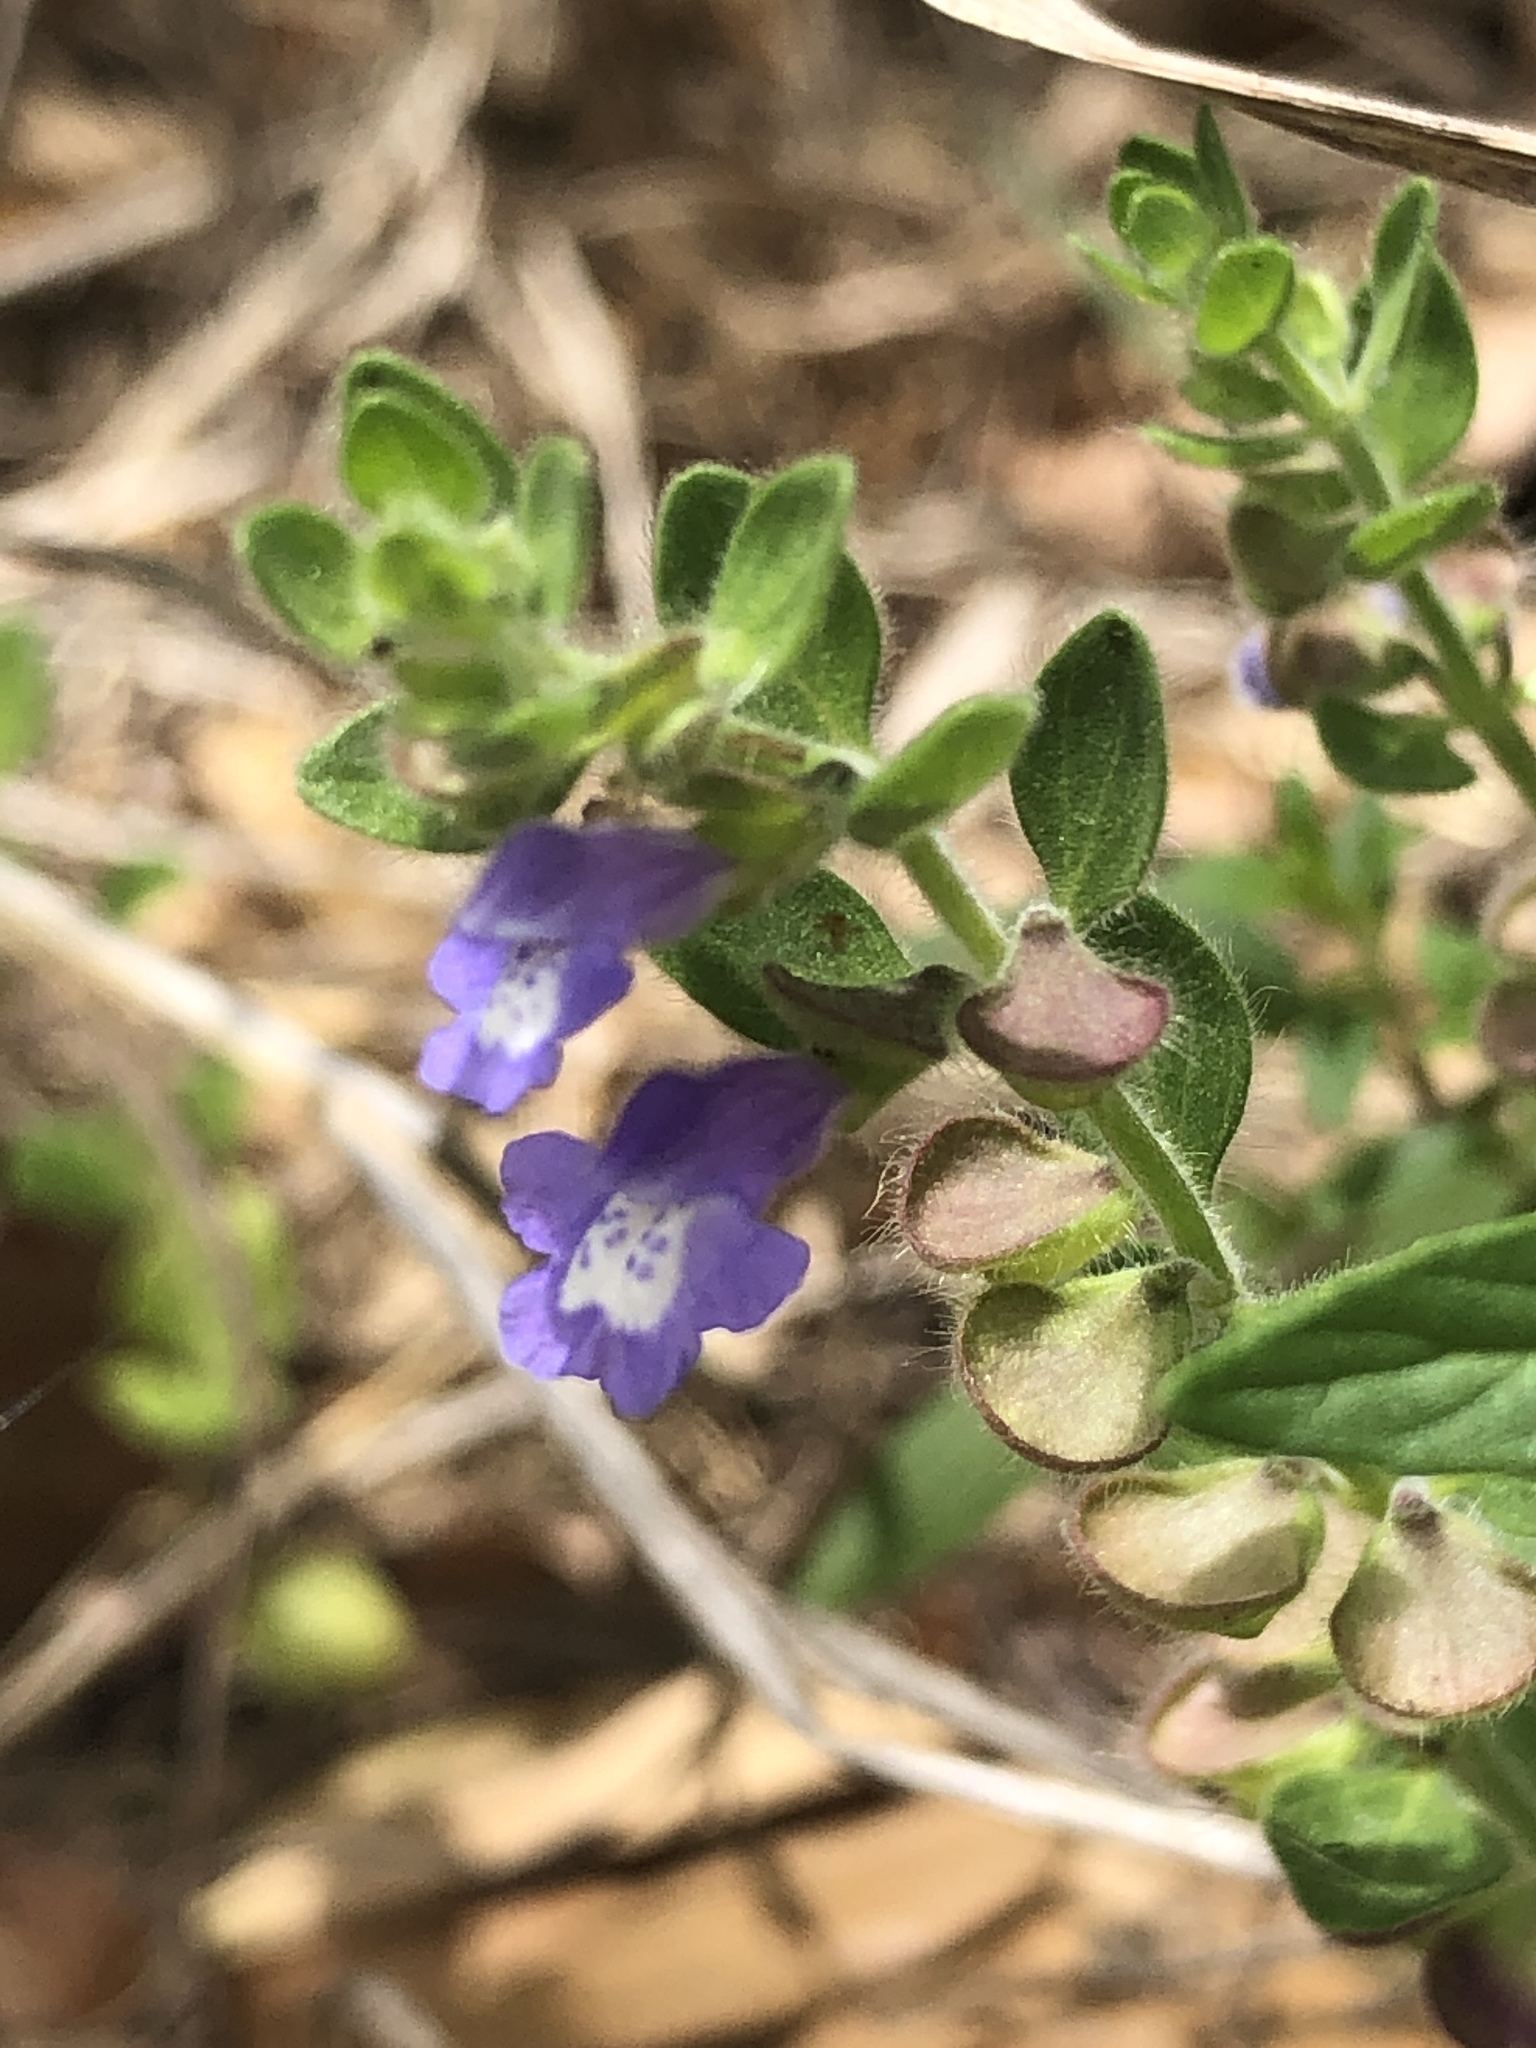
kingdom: Plantae
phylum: Tracheophyta
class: Magnoliopsida
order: Lamiales
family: Lamiaceae
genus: Scutellaria
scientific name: Scutellaria drummondii
